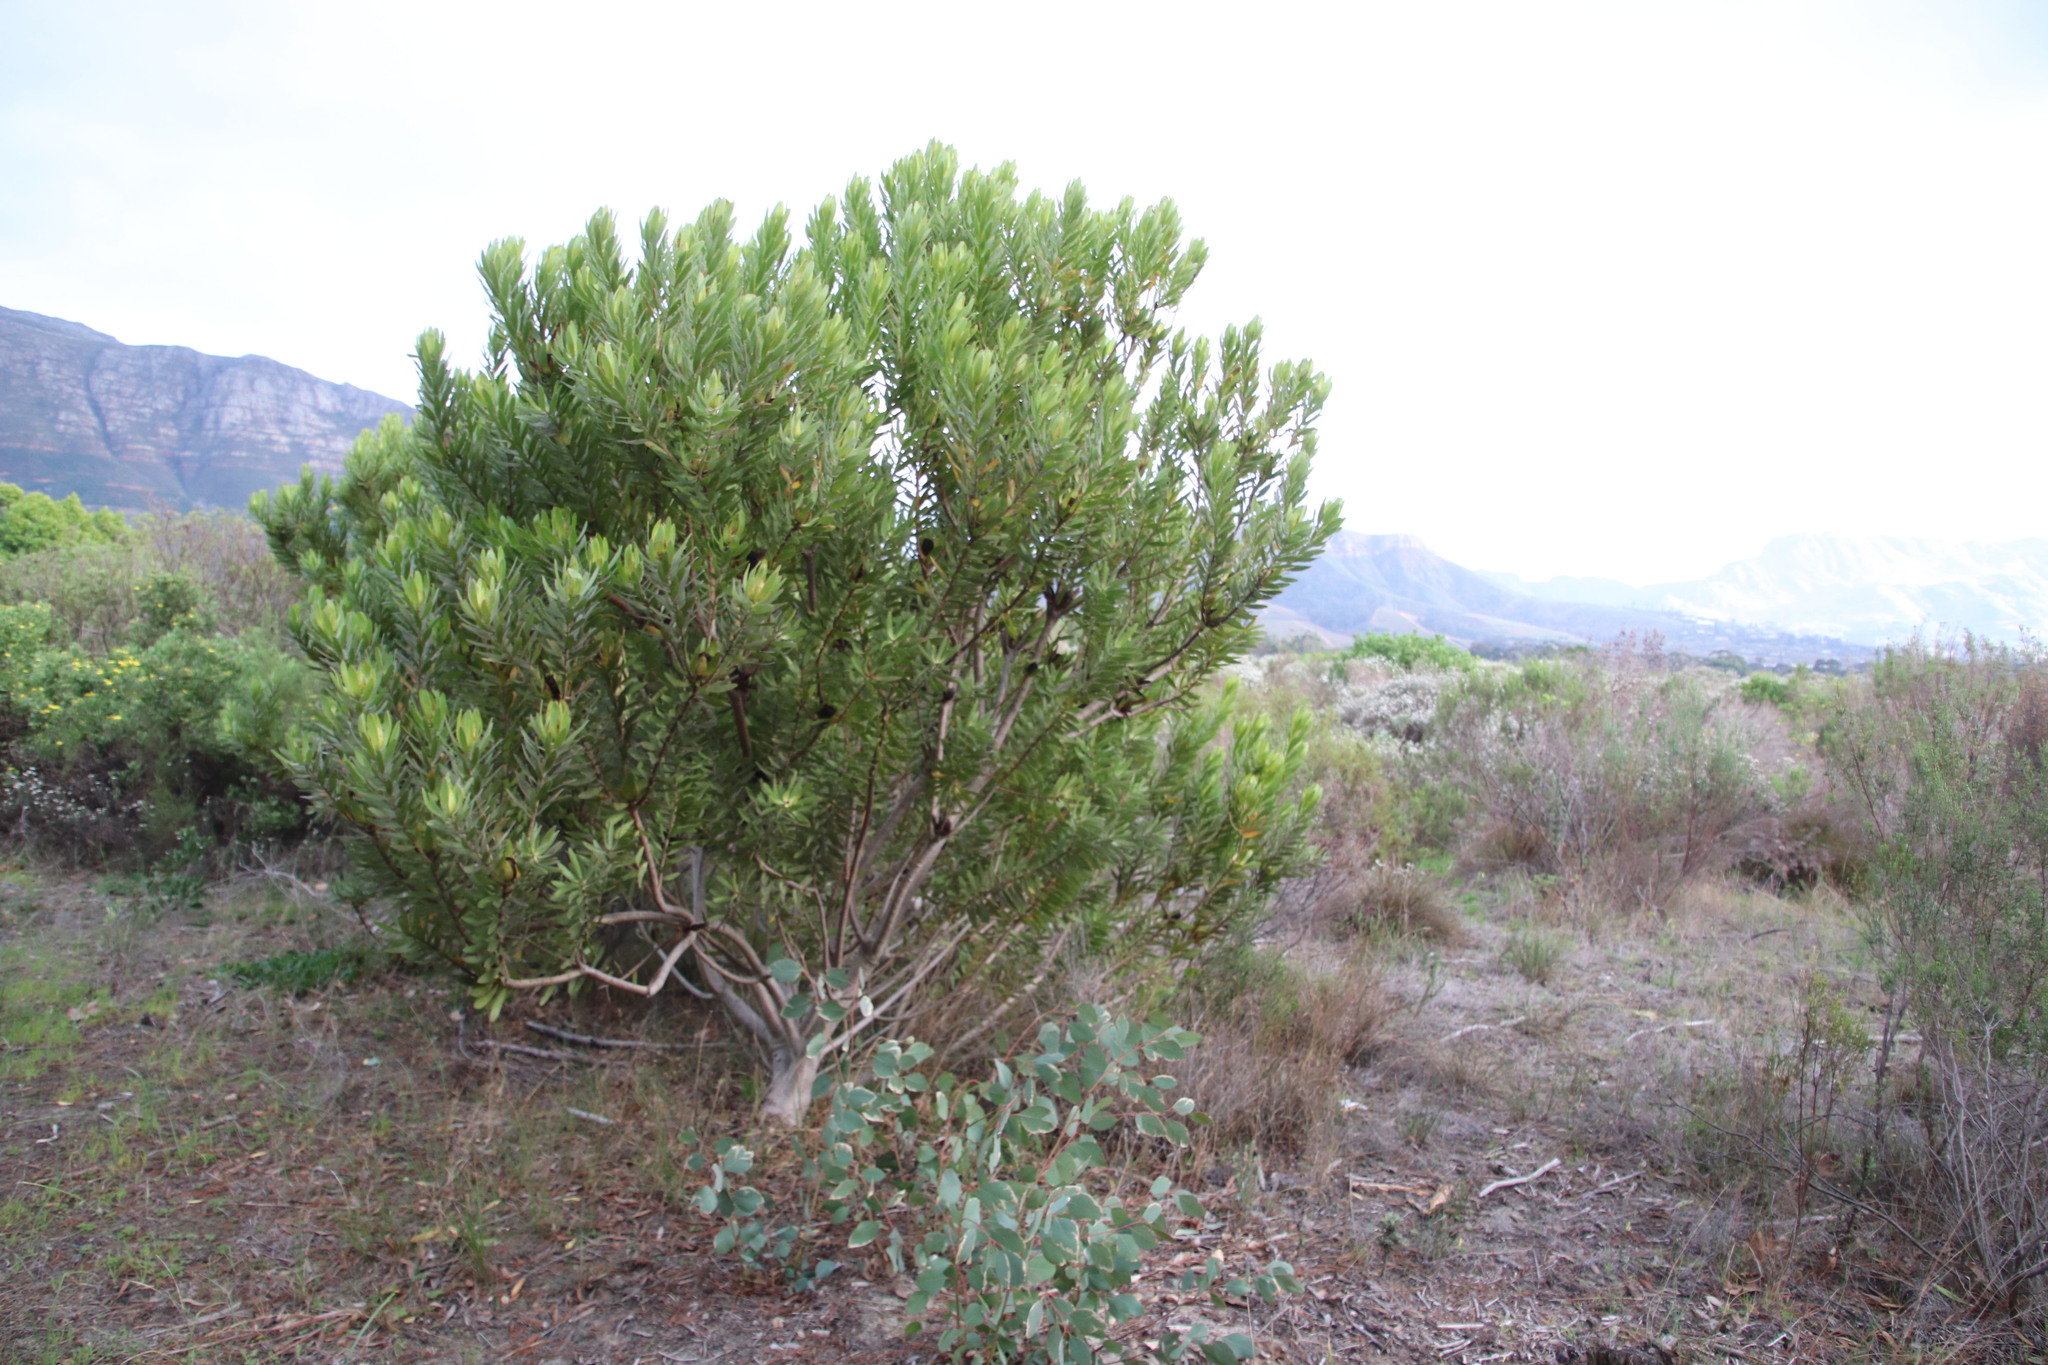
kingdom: Plantae
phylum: Tracheophyta
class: Magnoliopsida
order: Proteales
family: Proteaceae
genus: Leucadendron
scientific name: Leucadendron laureolum
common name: Golden sunshinebush
